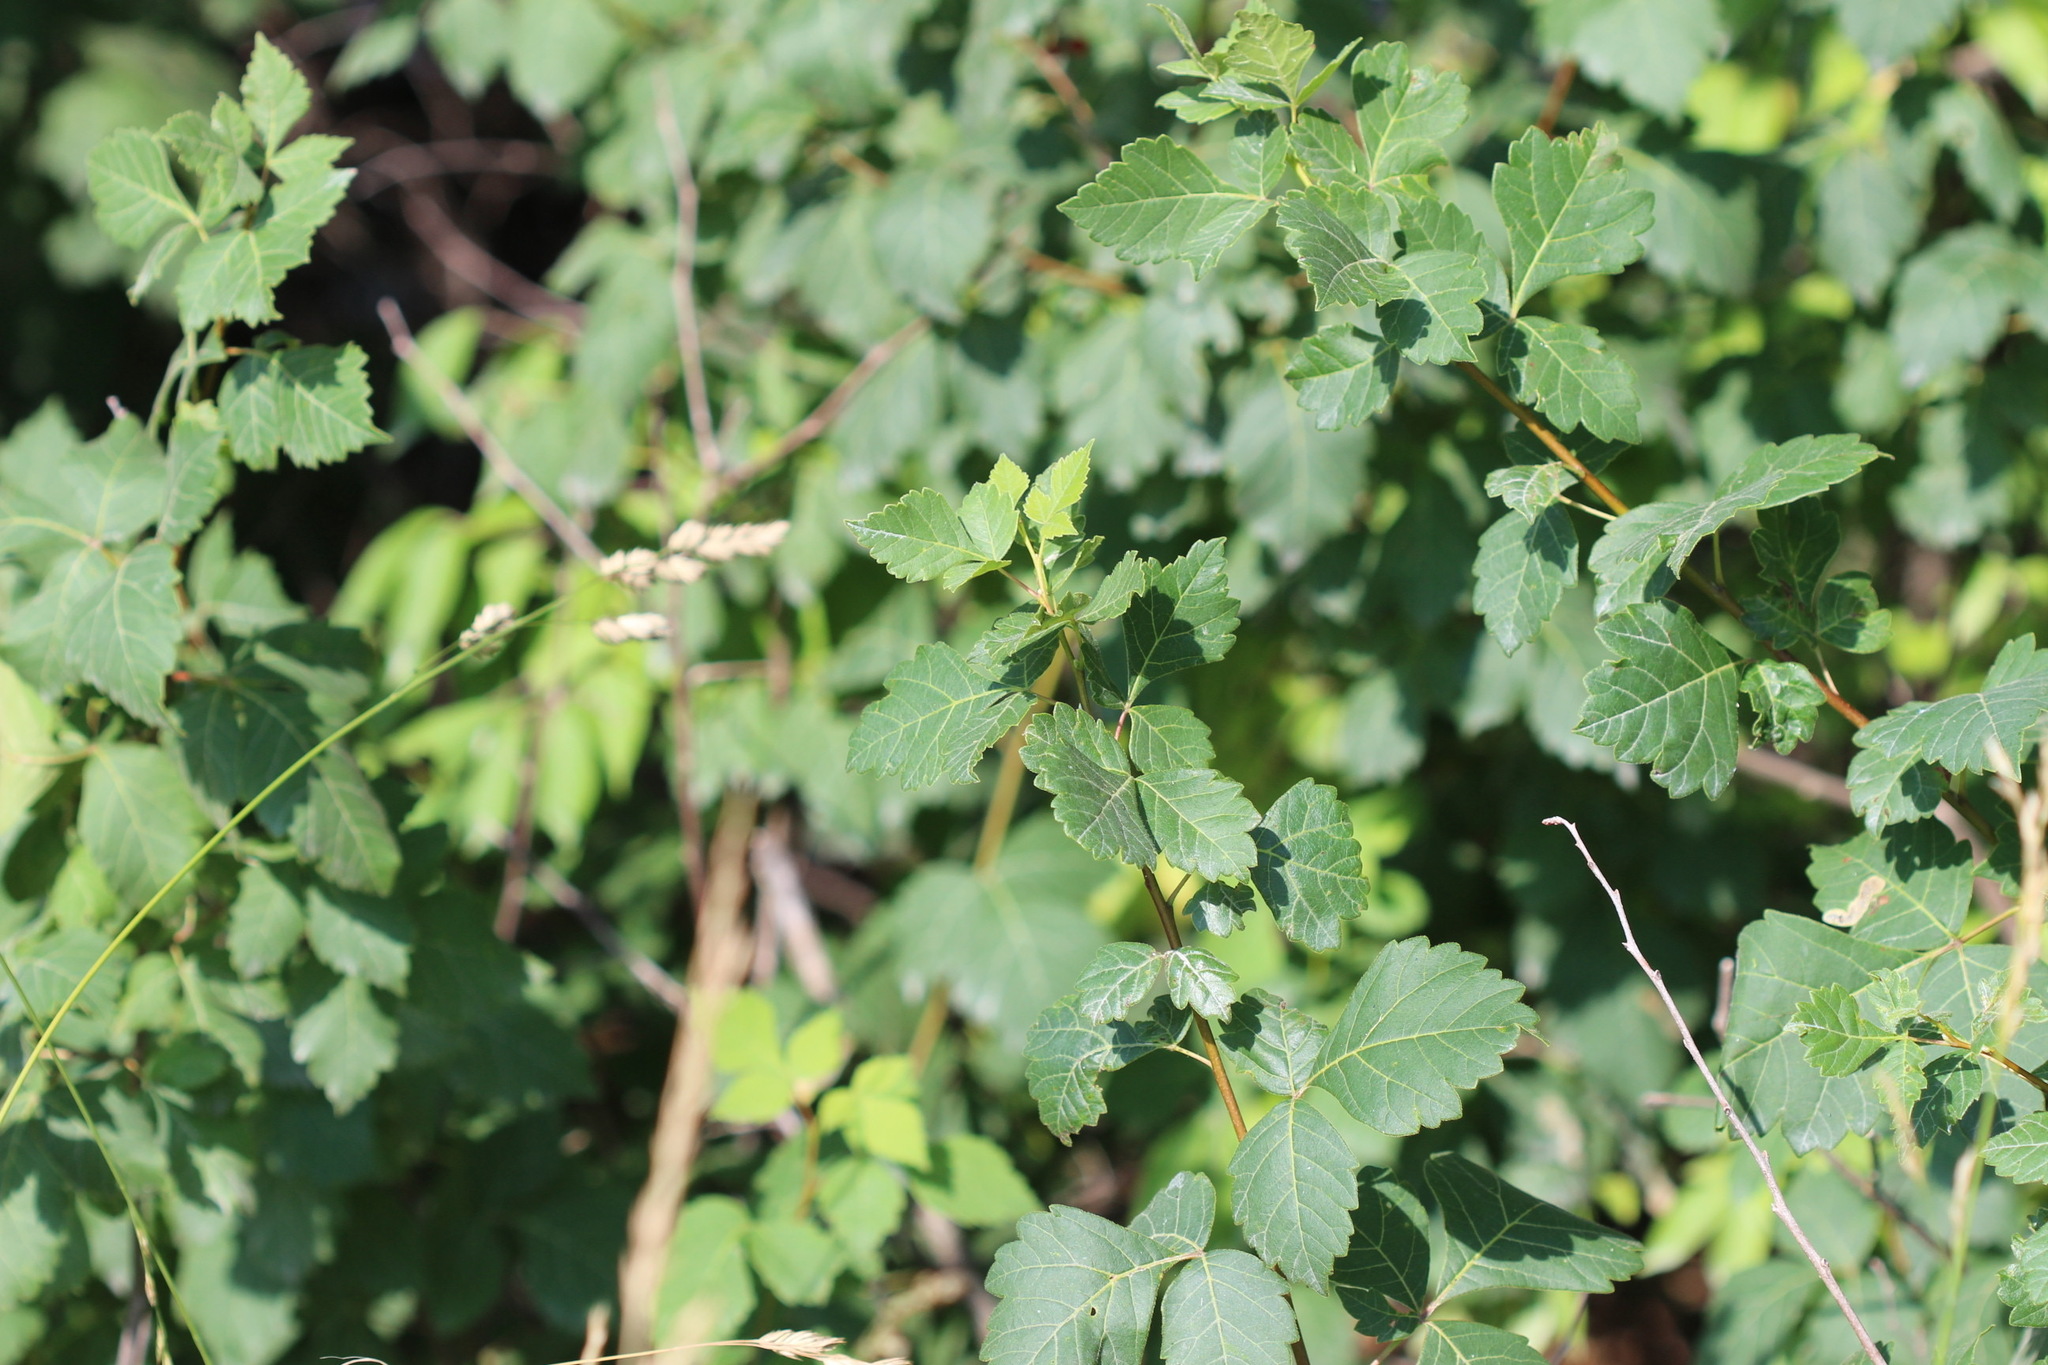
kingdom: Plantae
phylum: Tracheophyta
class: Magnoliopsida
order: Sapindales
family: Anacardiaceae
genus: Rhus
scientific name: Rhus aromatica
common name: Aromatic sumac
